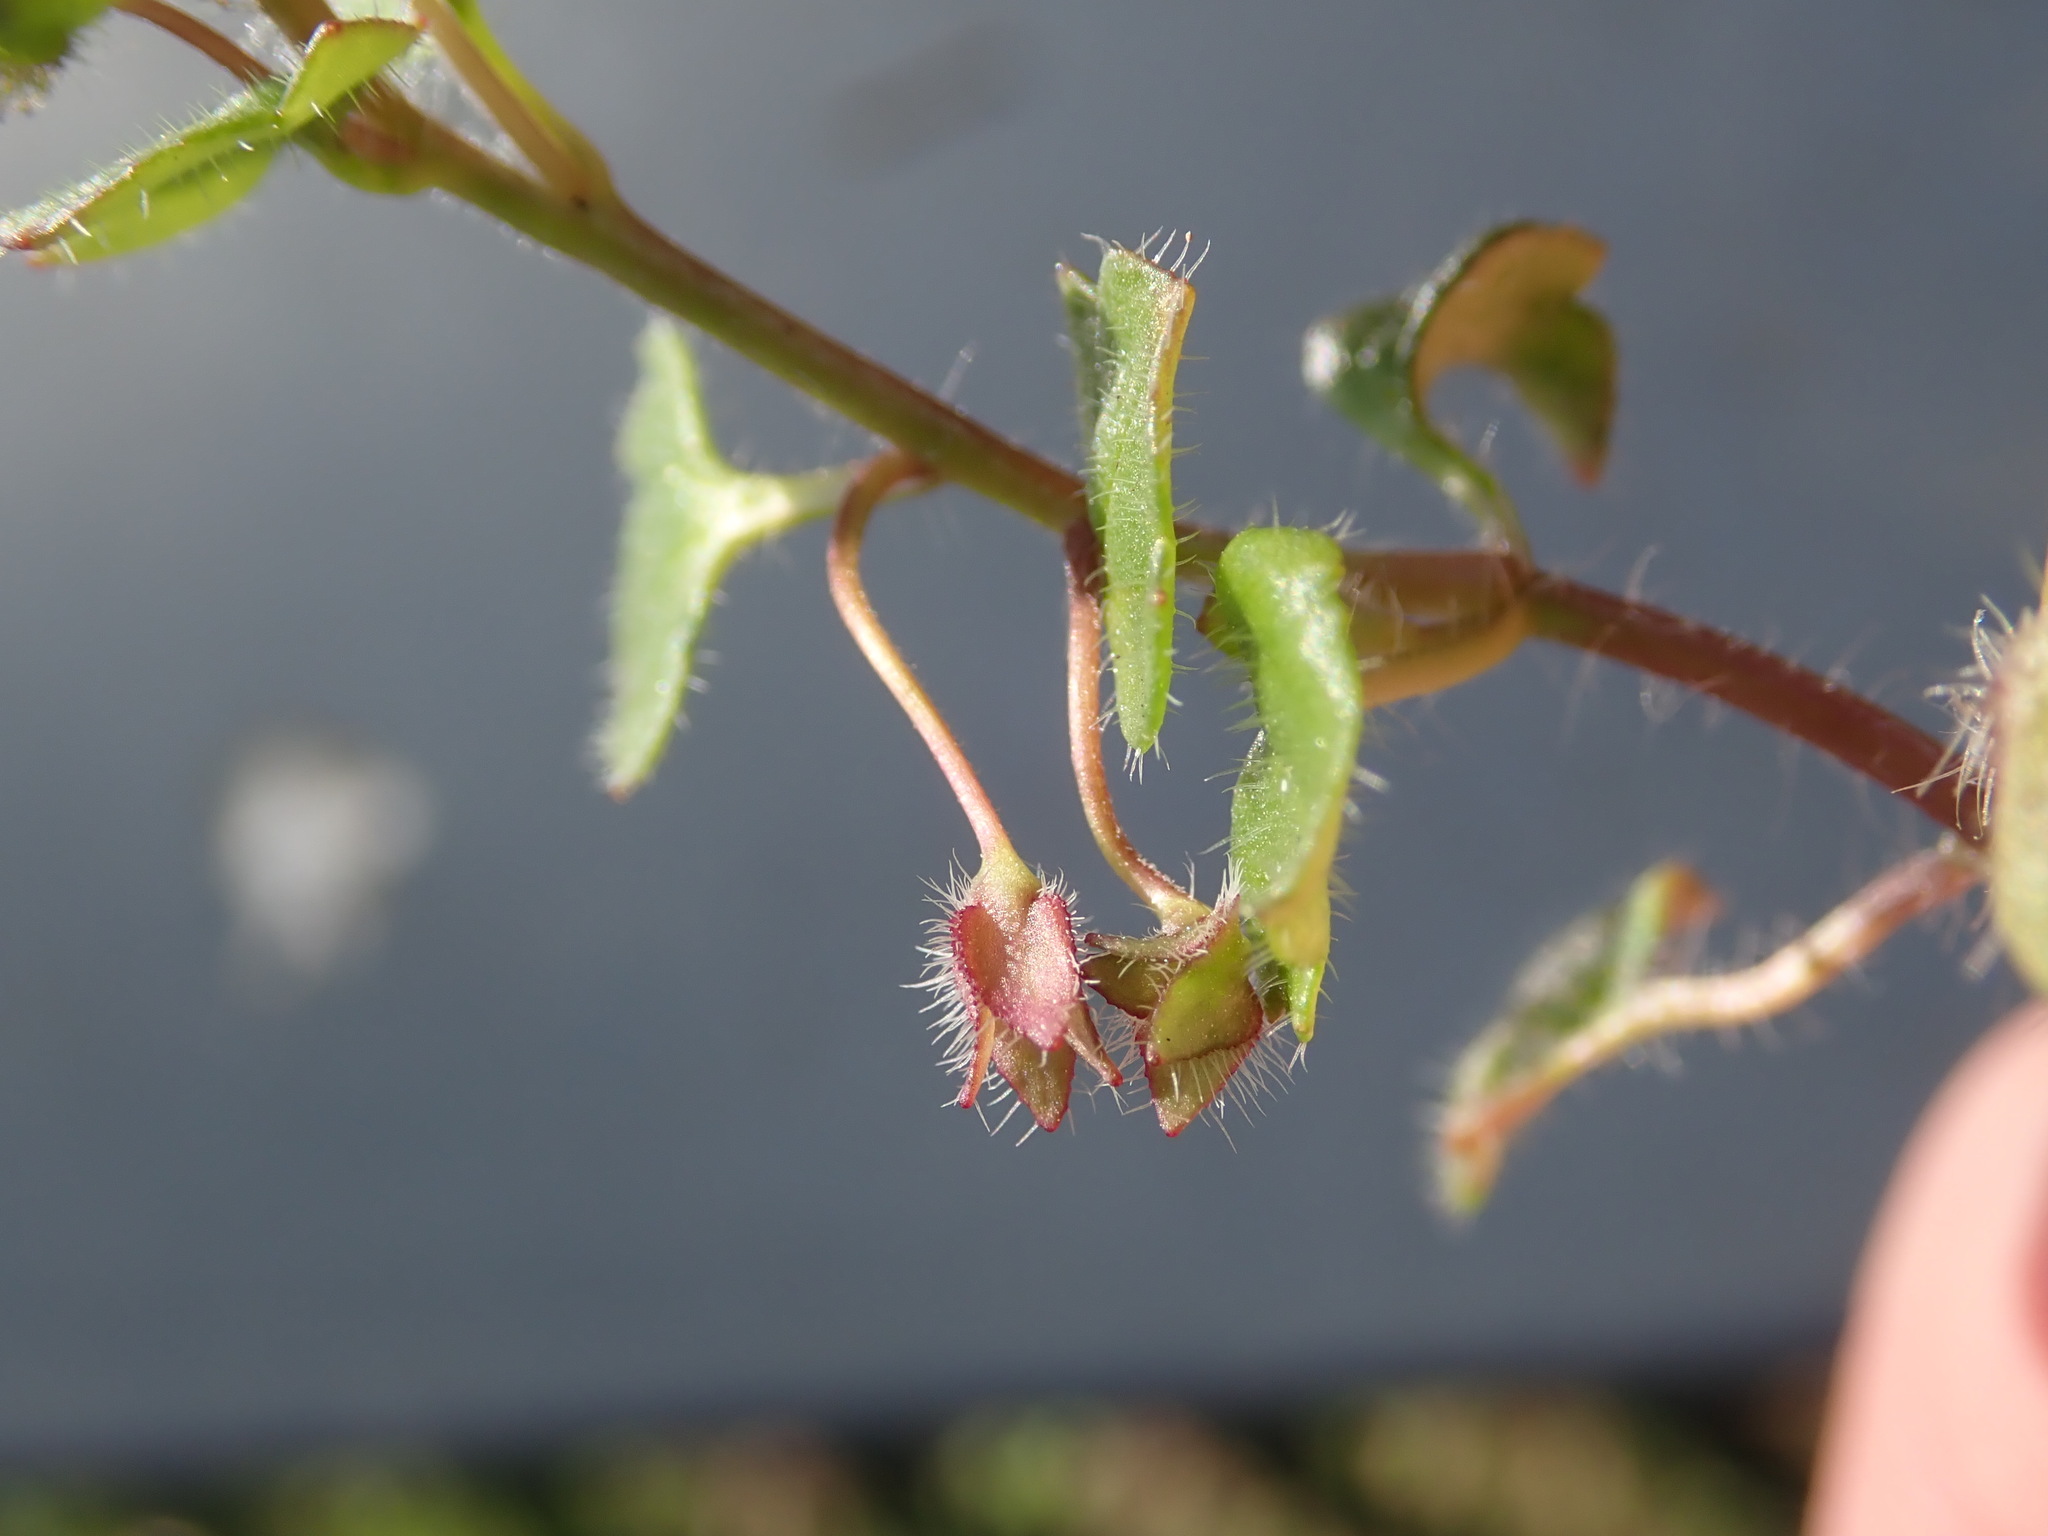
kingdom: Plantae
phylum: Tracheophyta
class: Magnoliopsida
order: Lamiales
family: Plantaginaceae
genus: Veronica
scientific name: Veronica hederifolia
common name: Ivy-leaved speedwell
